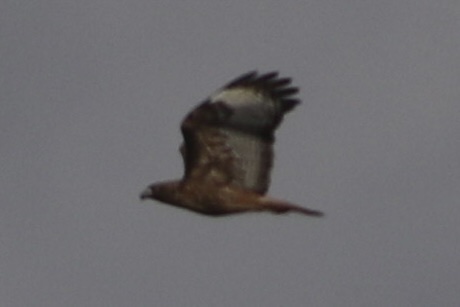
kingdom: Animalia
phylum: Chordata
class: Aves
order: Accipitriformes
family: Accipitridae
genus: Buteo
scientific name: Buteo jamaicensis
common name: Red-tailed hawk
